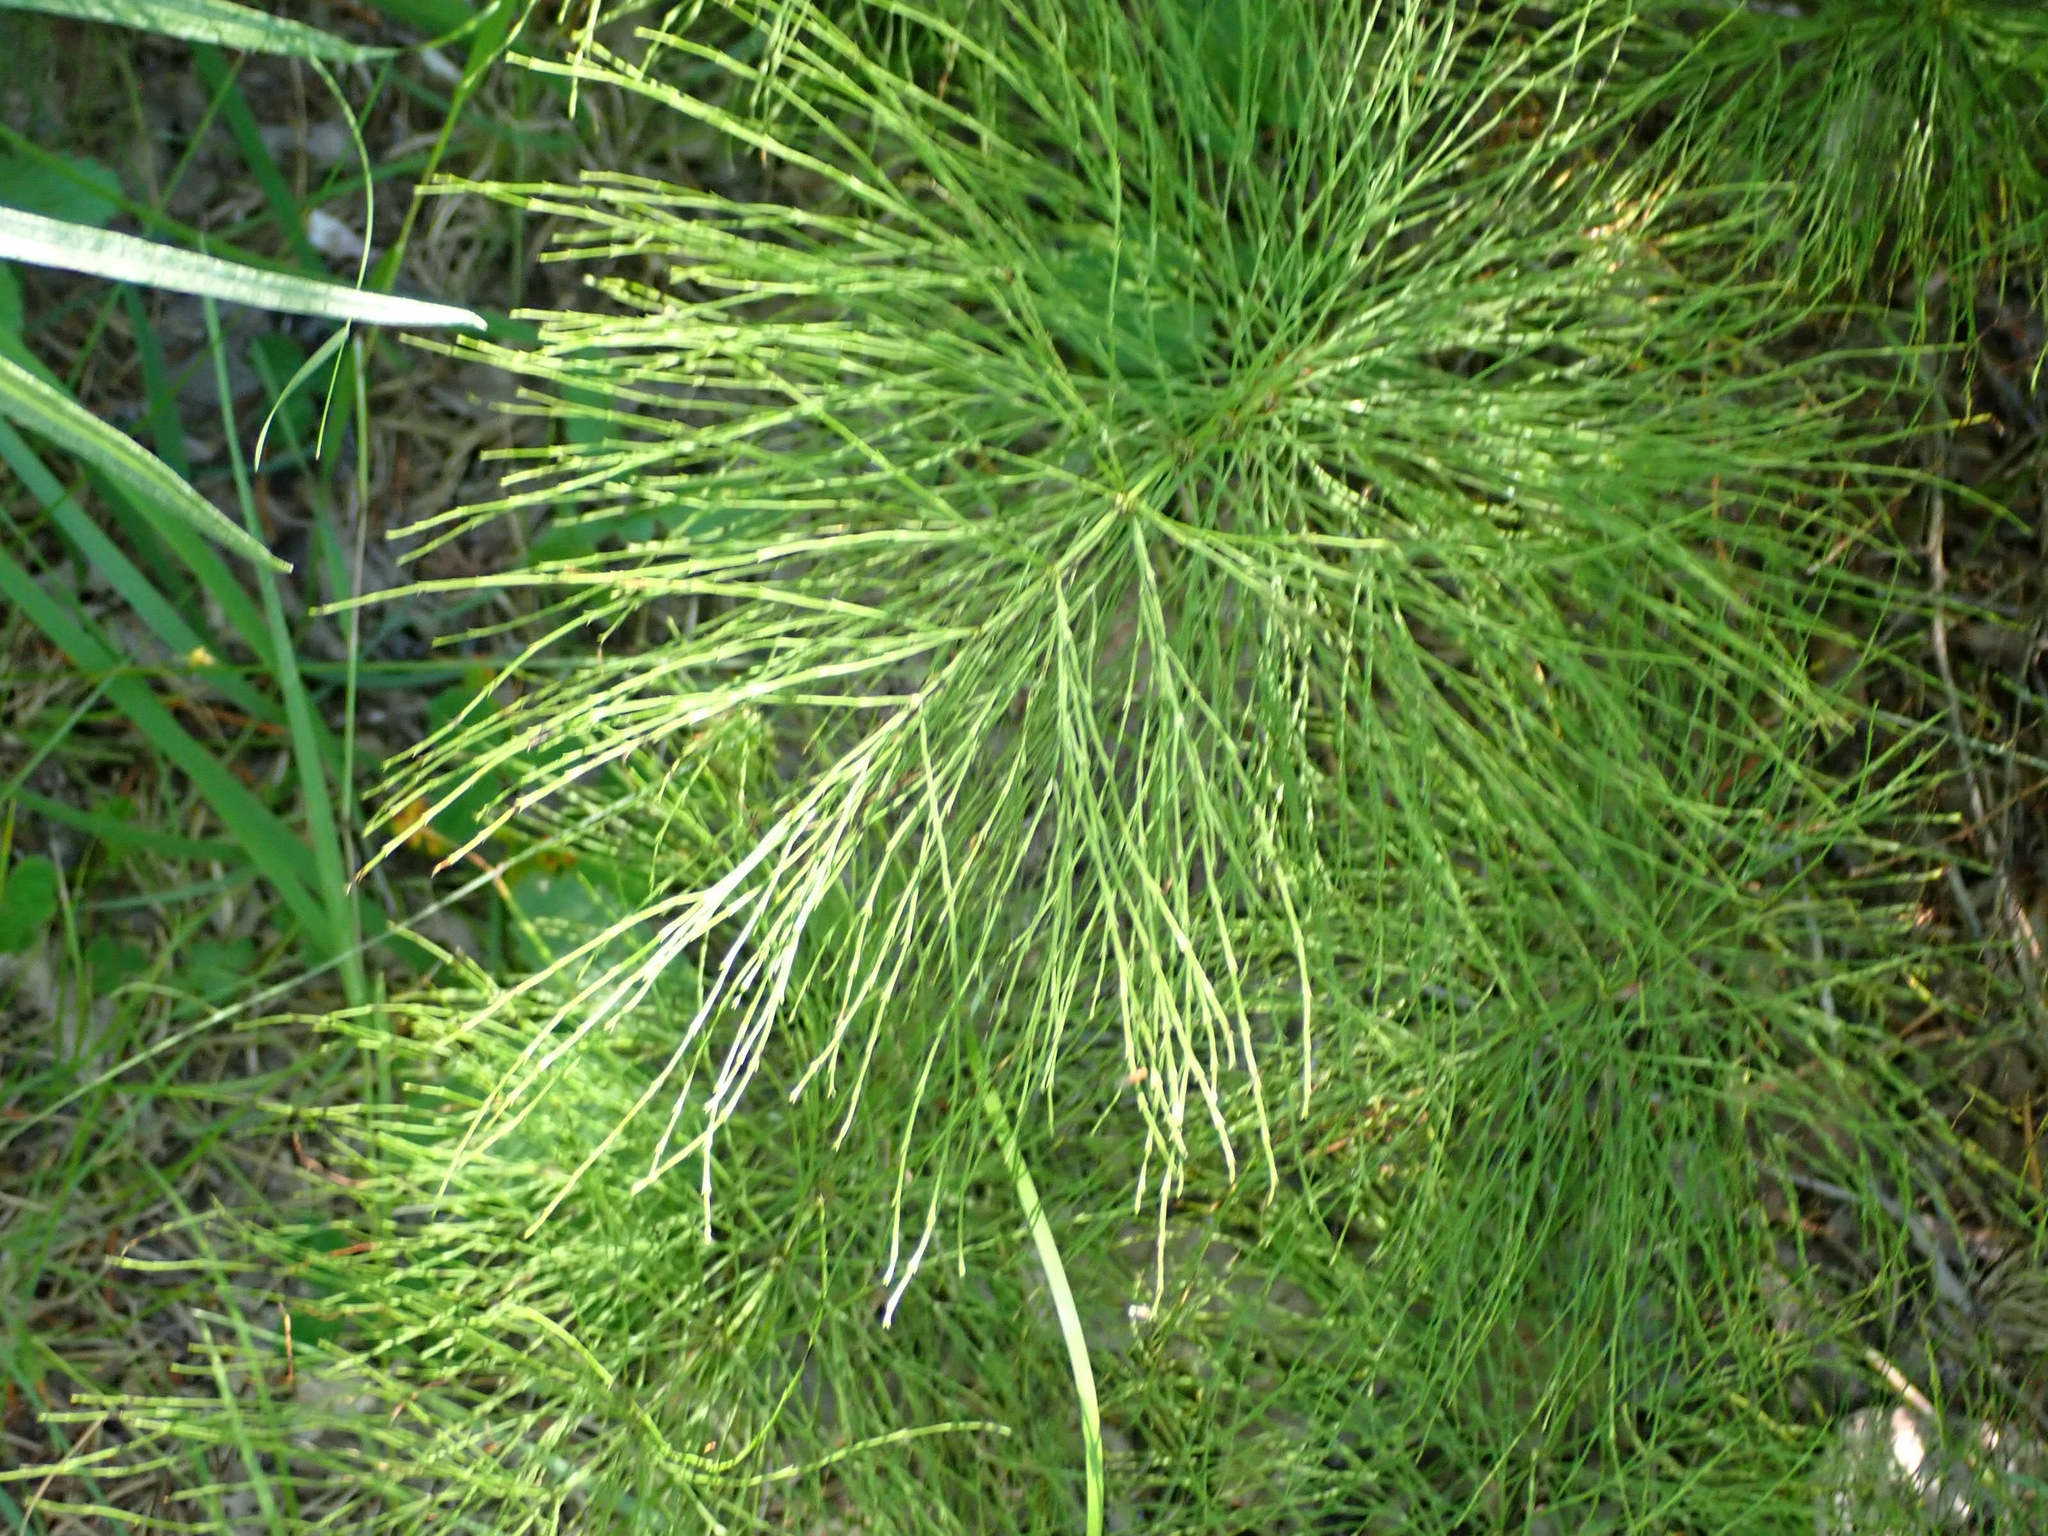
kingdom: Plantae
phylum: Tracheophyta
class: Polypodiopsida
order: Equisetales
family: Equisetaceae
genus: Equisetum
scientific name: Equisetum sylvaticum
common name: Wood horsetail
